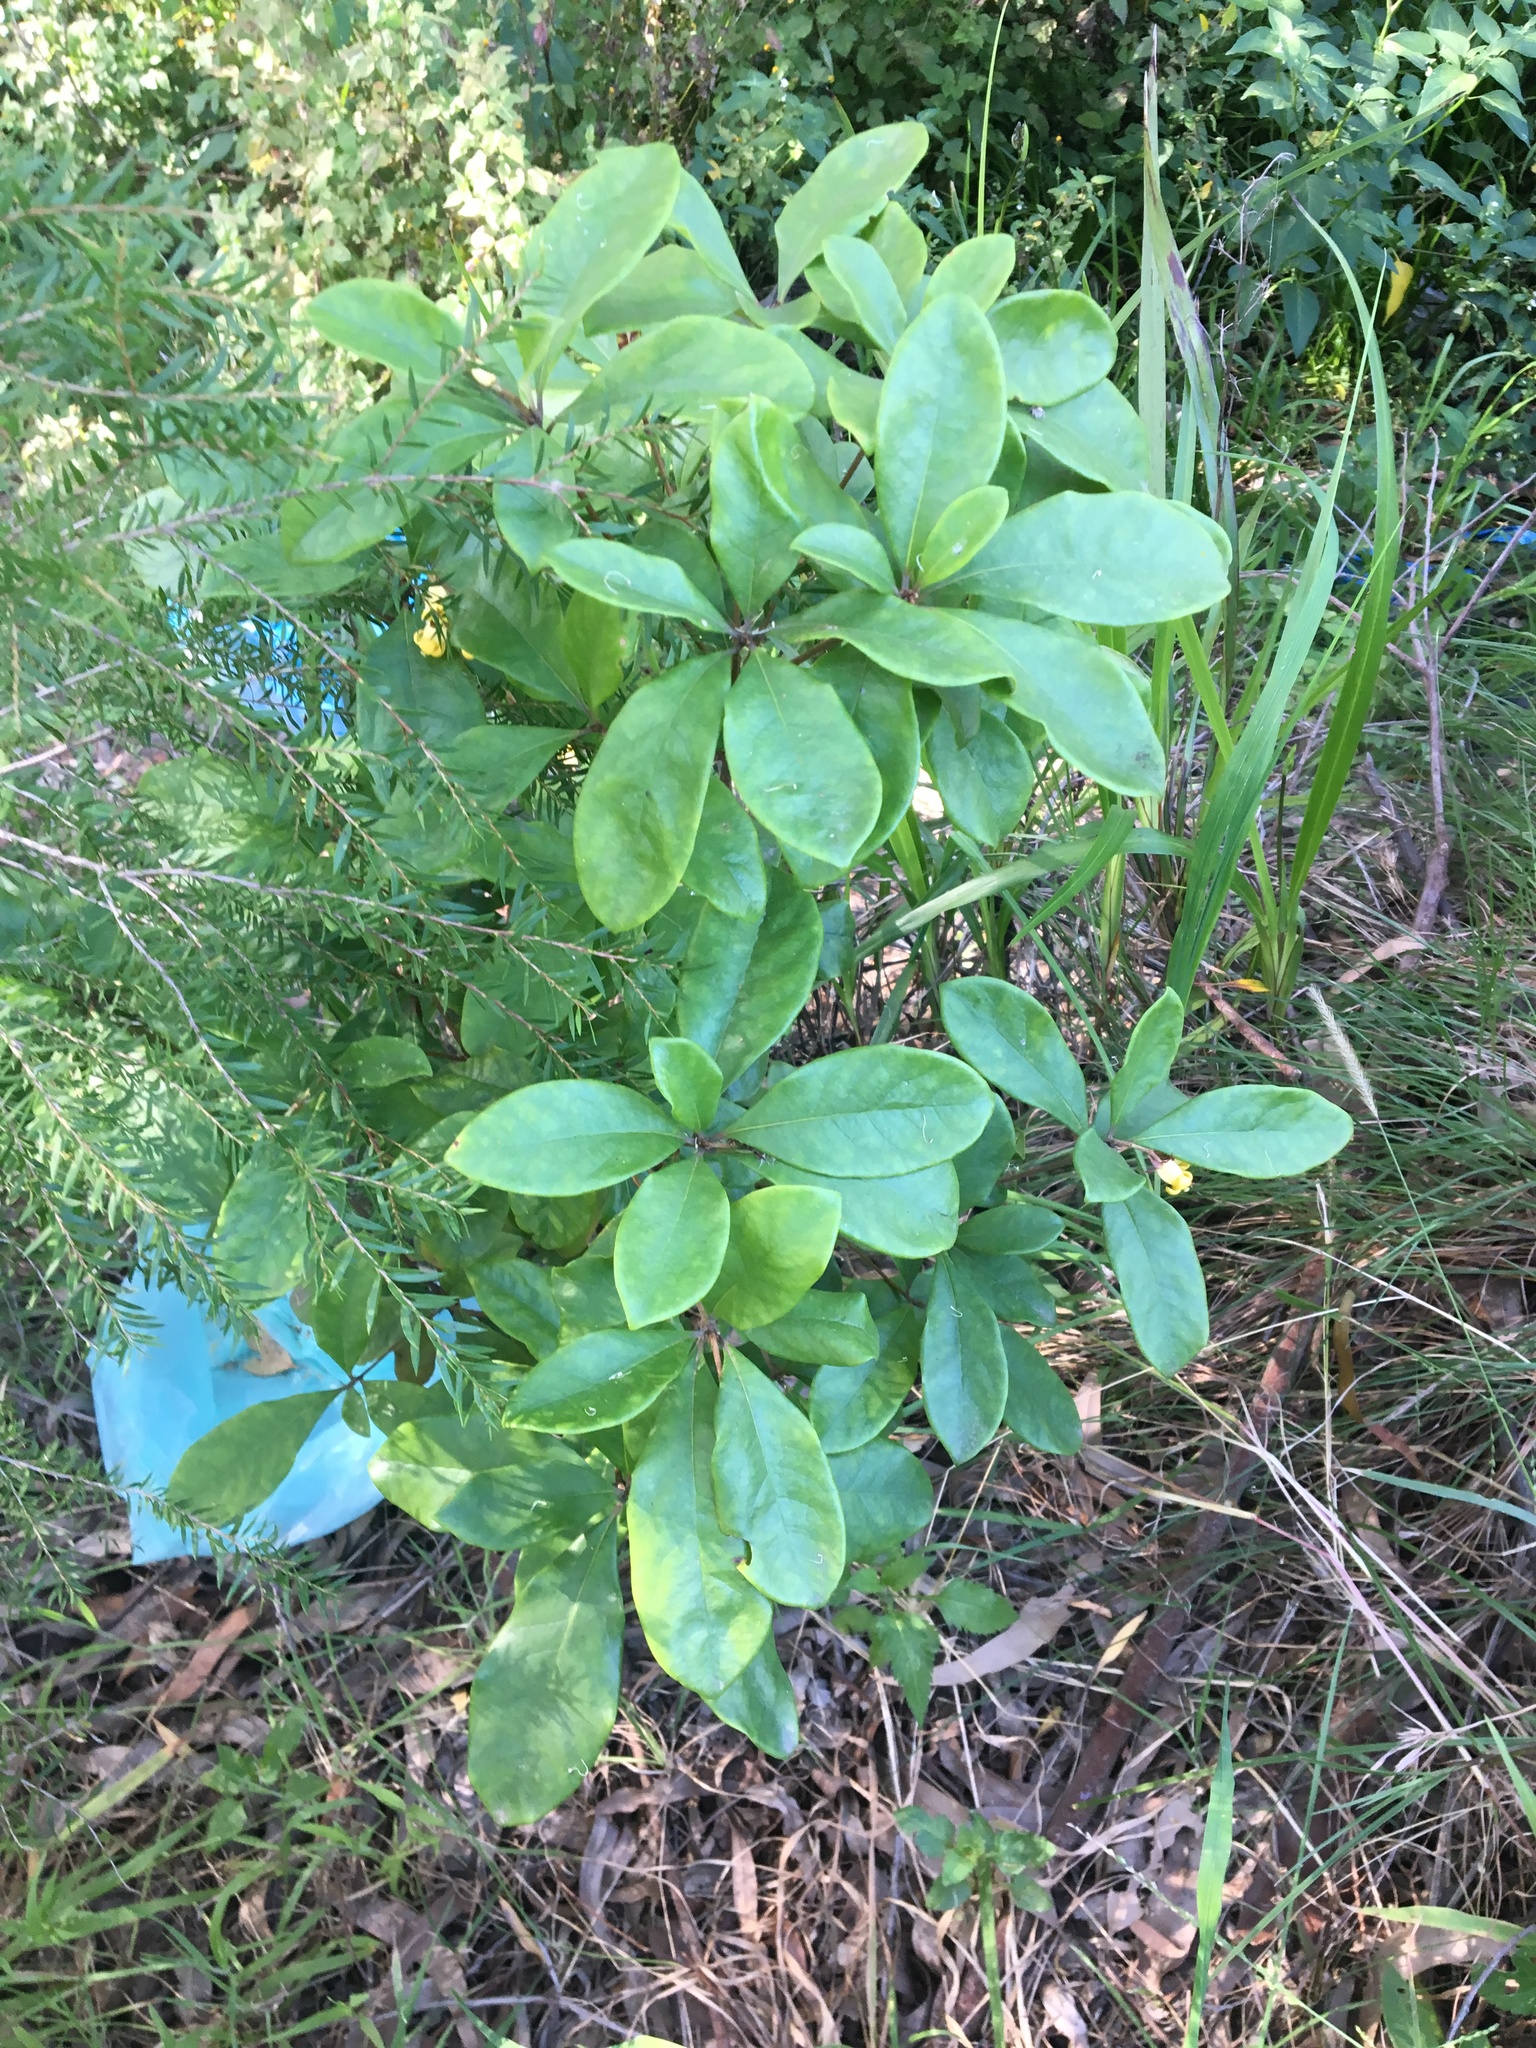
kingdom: Plantae
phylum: Tracheophyta
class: Magnoliopsida
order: Apiales
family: Pittosporaceae
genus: Pittosporum
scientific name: Pittosporum revolutum
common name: Brisbane-laurel
